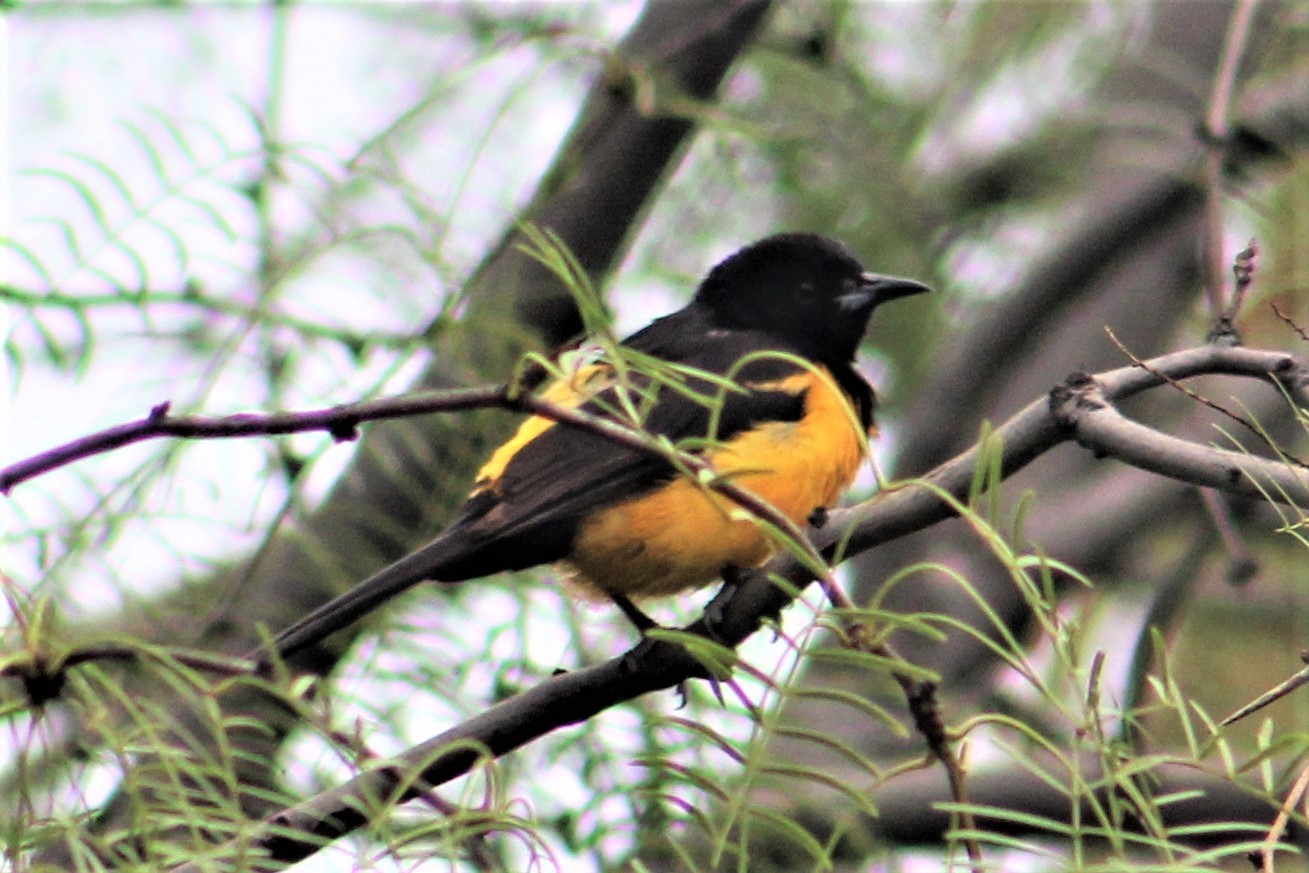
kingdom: Animalia
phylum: Chordata
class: Aves
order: Passeriformes
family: Icteridae
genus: Icterus
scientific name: Icterus wagleri
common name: Black-vented oriole
